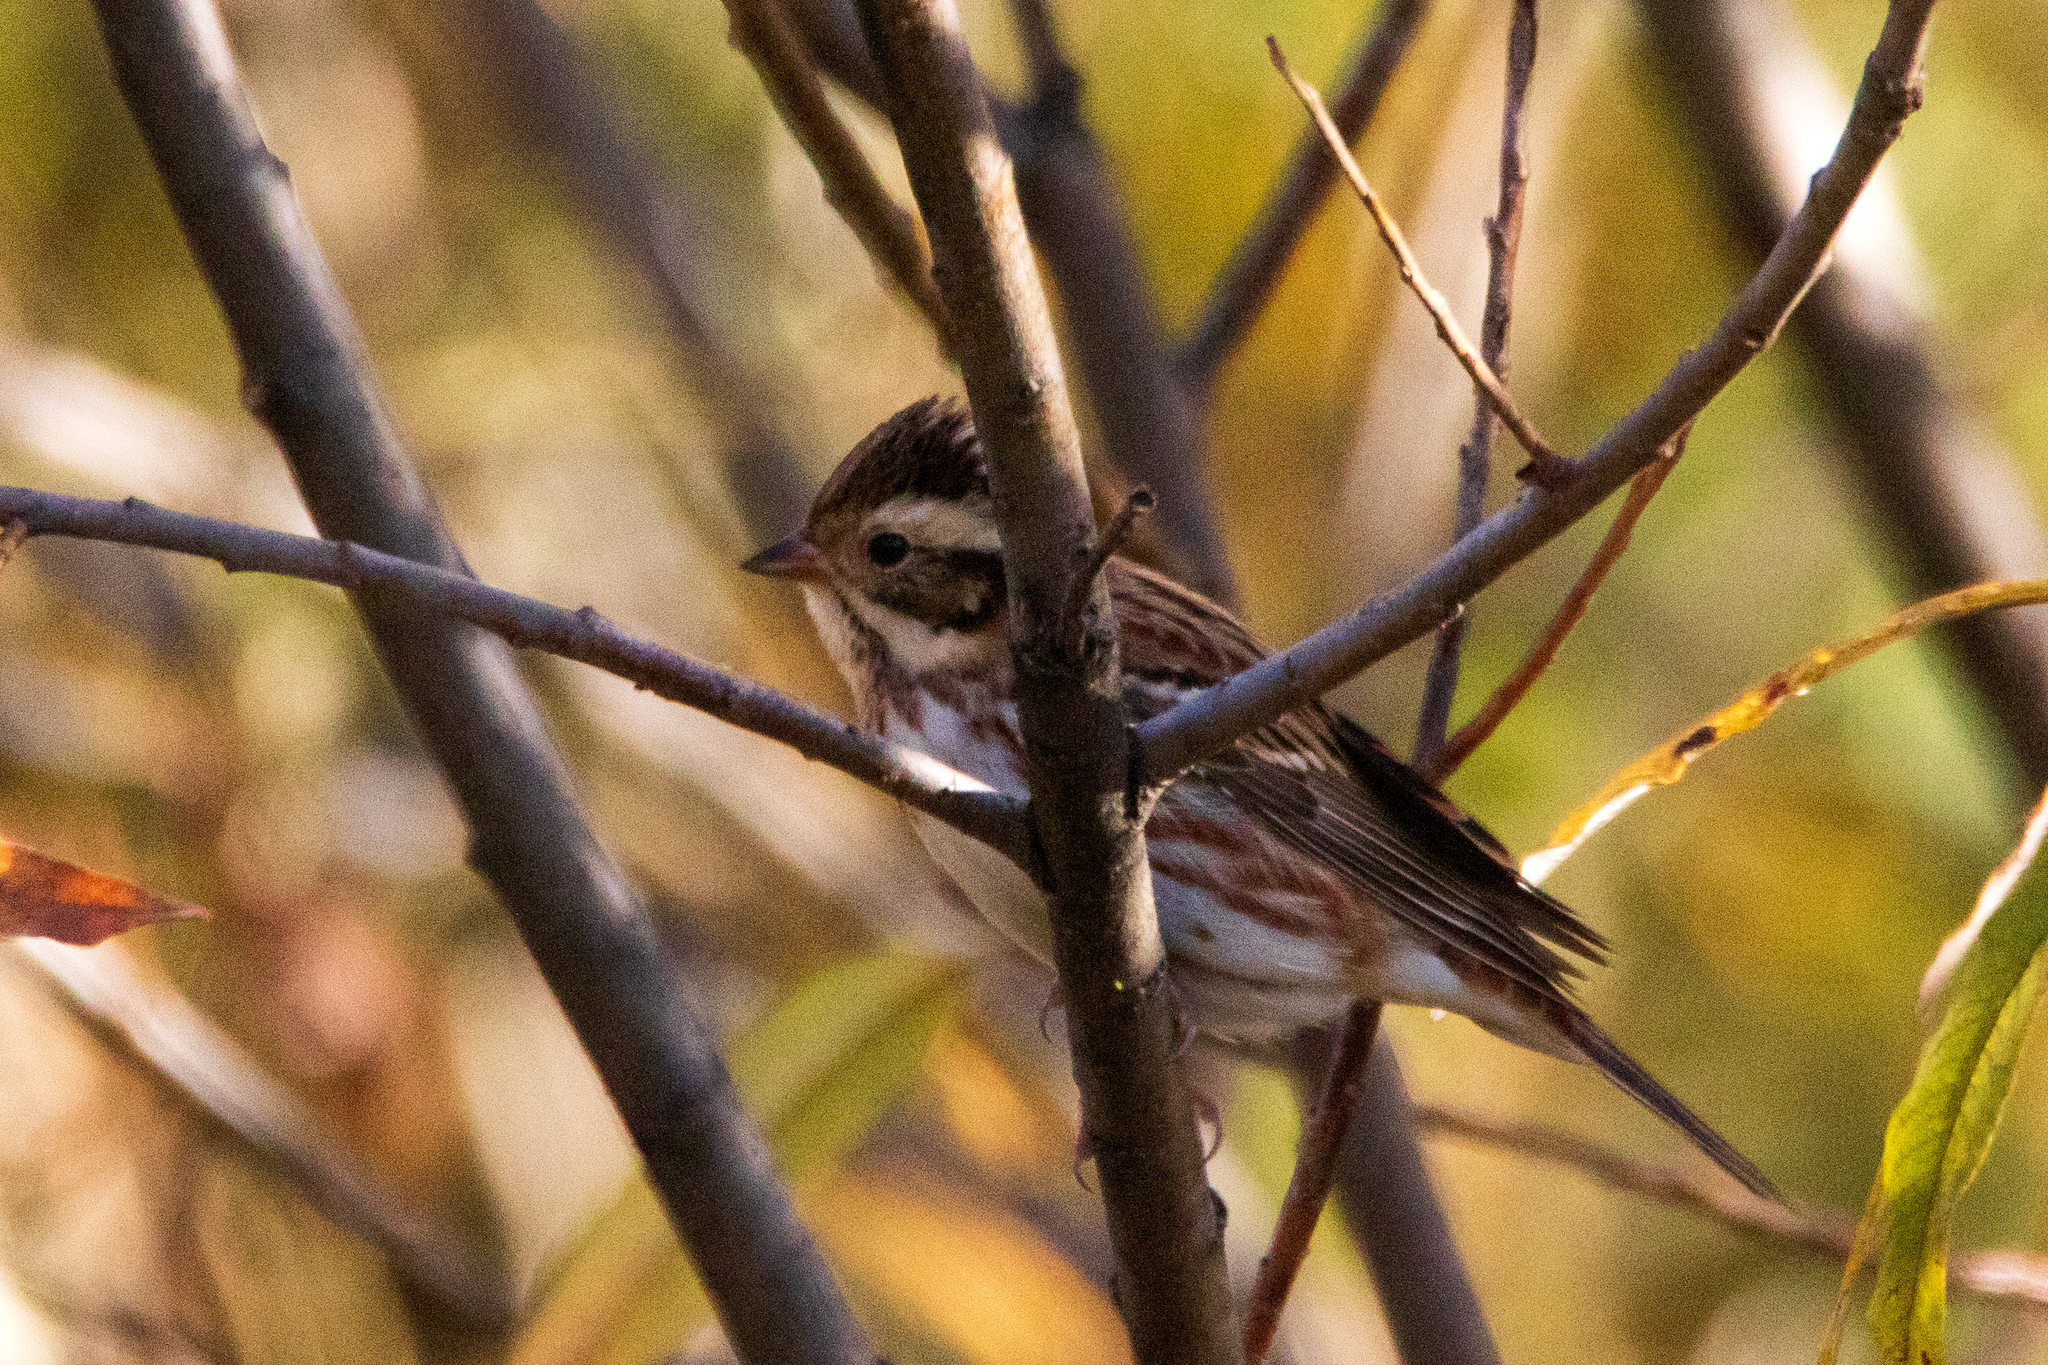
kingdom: Animalia
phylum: Chordata
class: Aves
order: Passeriformes
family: Emberizidae
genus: Emberiza
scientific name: Emberiza rustica
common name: Rustic bunting
